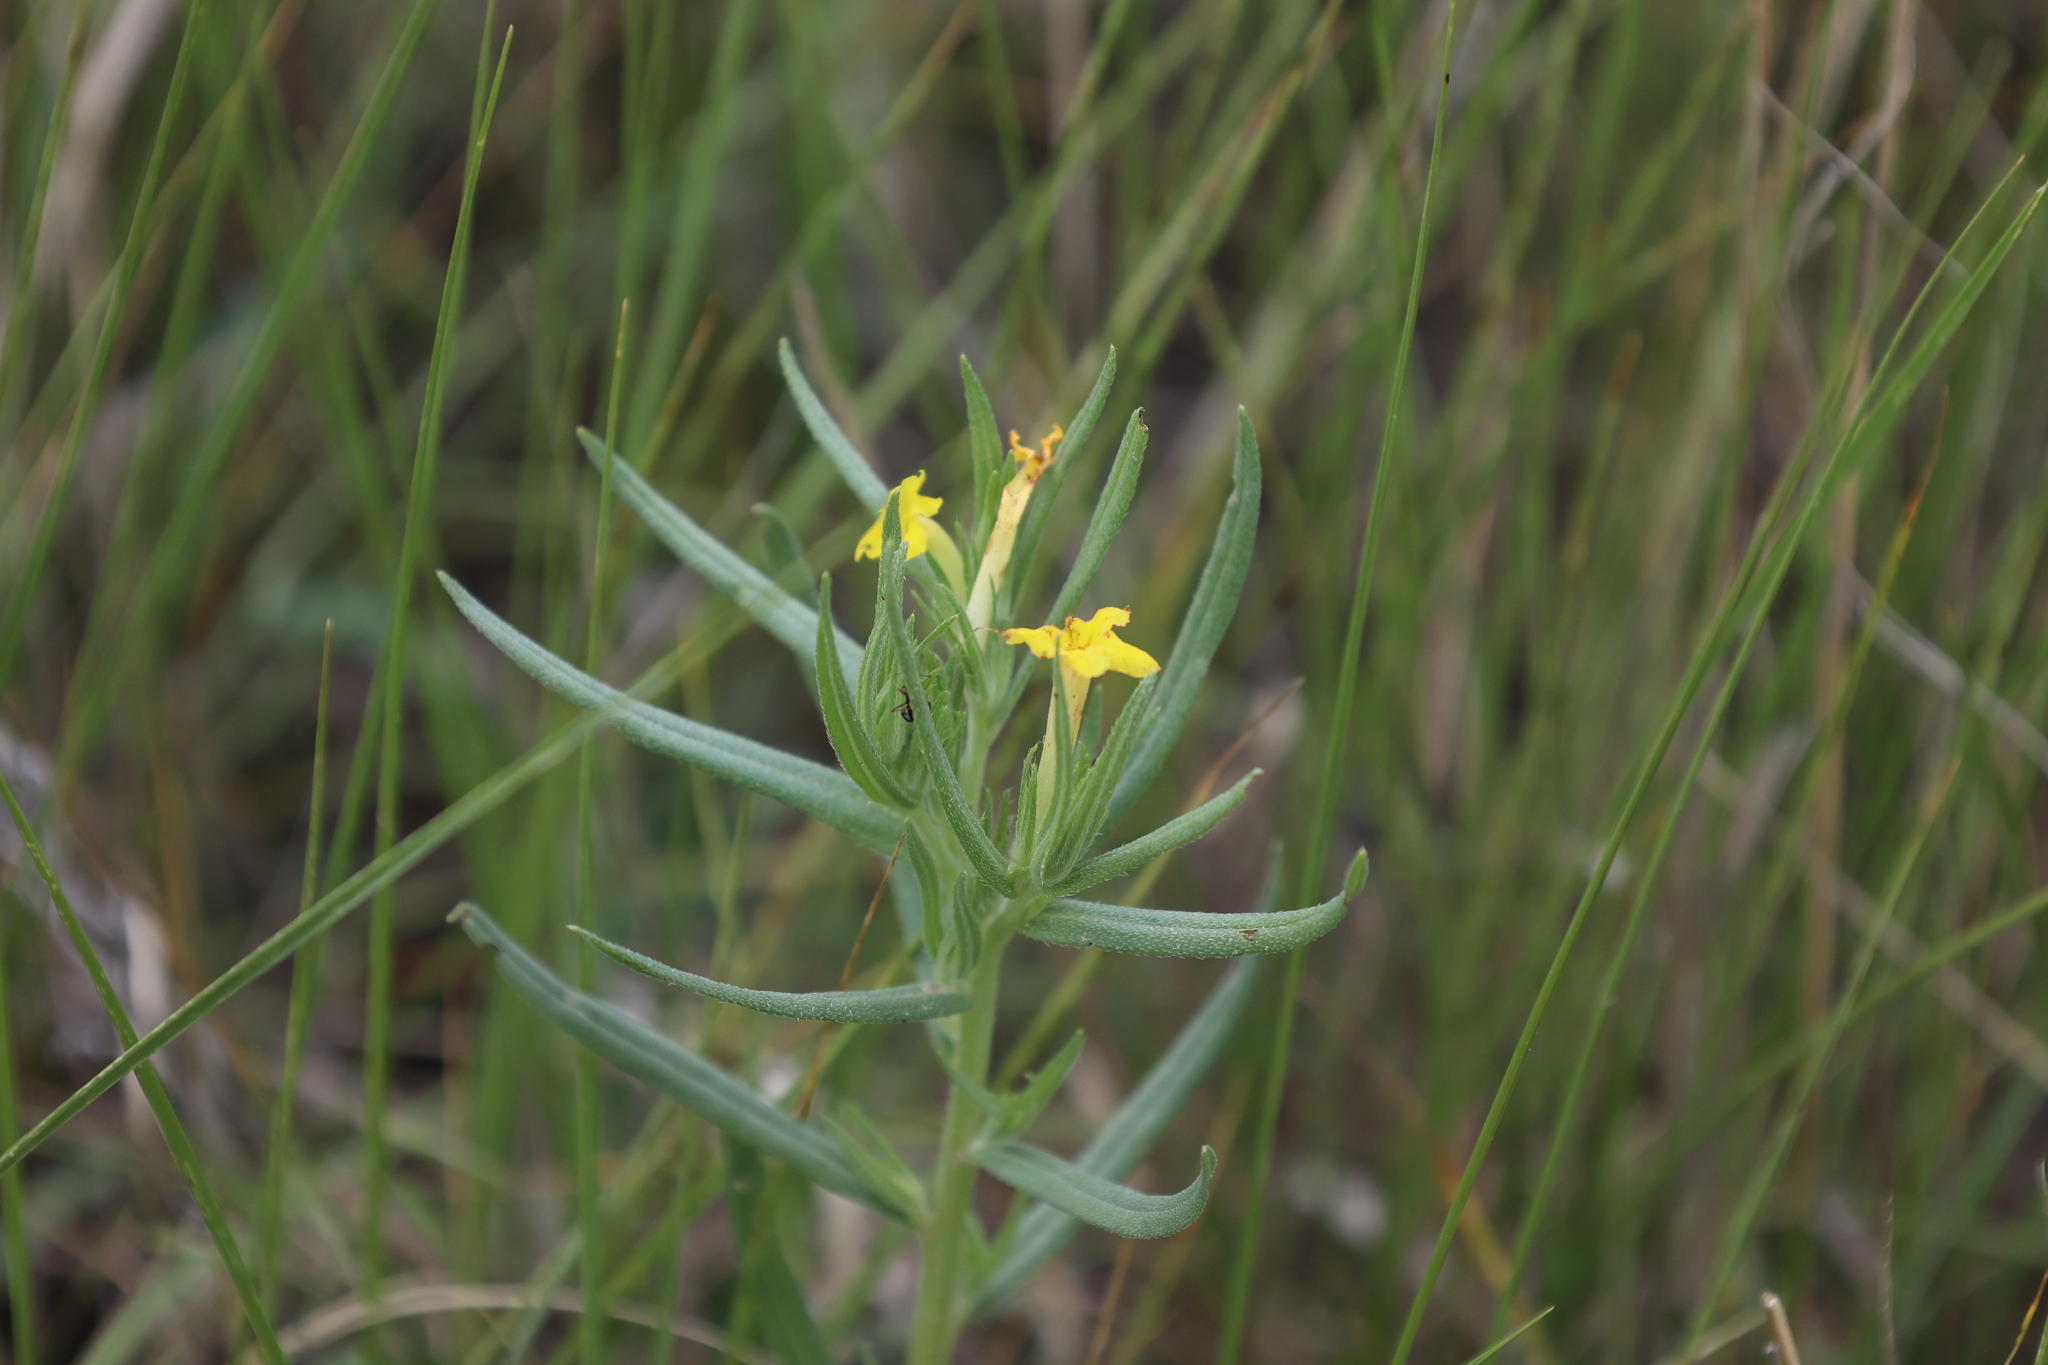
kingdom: Plantae
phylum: Tracheophyta
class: Magnoliopsida
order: Boraginales
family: Boraginaceae
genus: Lithospermum
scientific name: Lithospermum incisum
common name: Fringed gromwell
